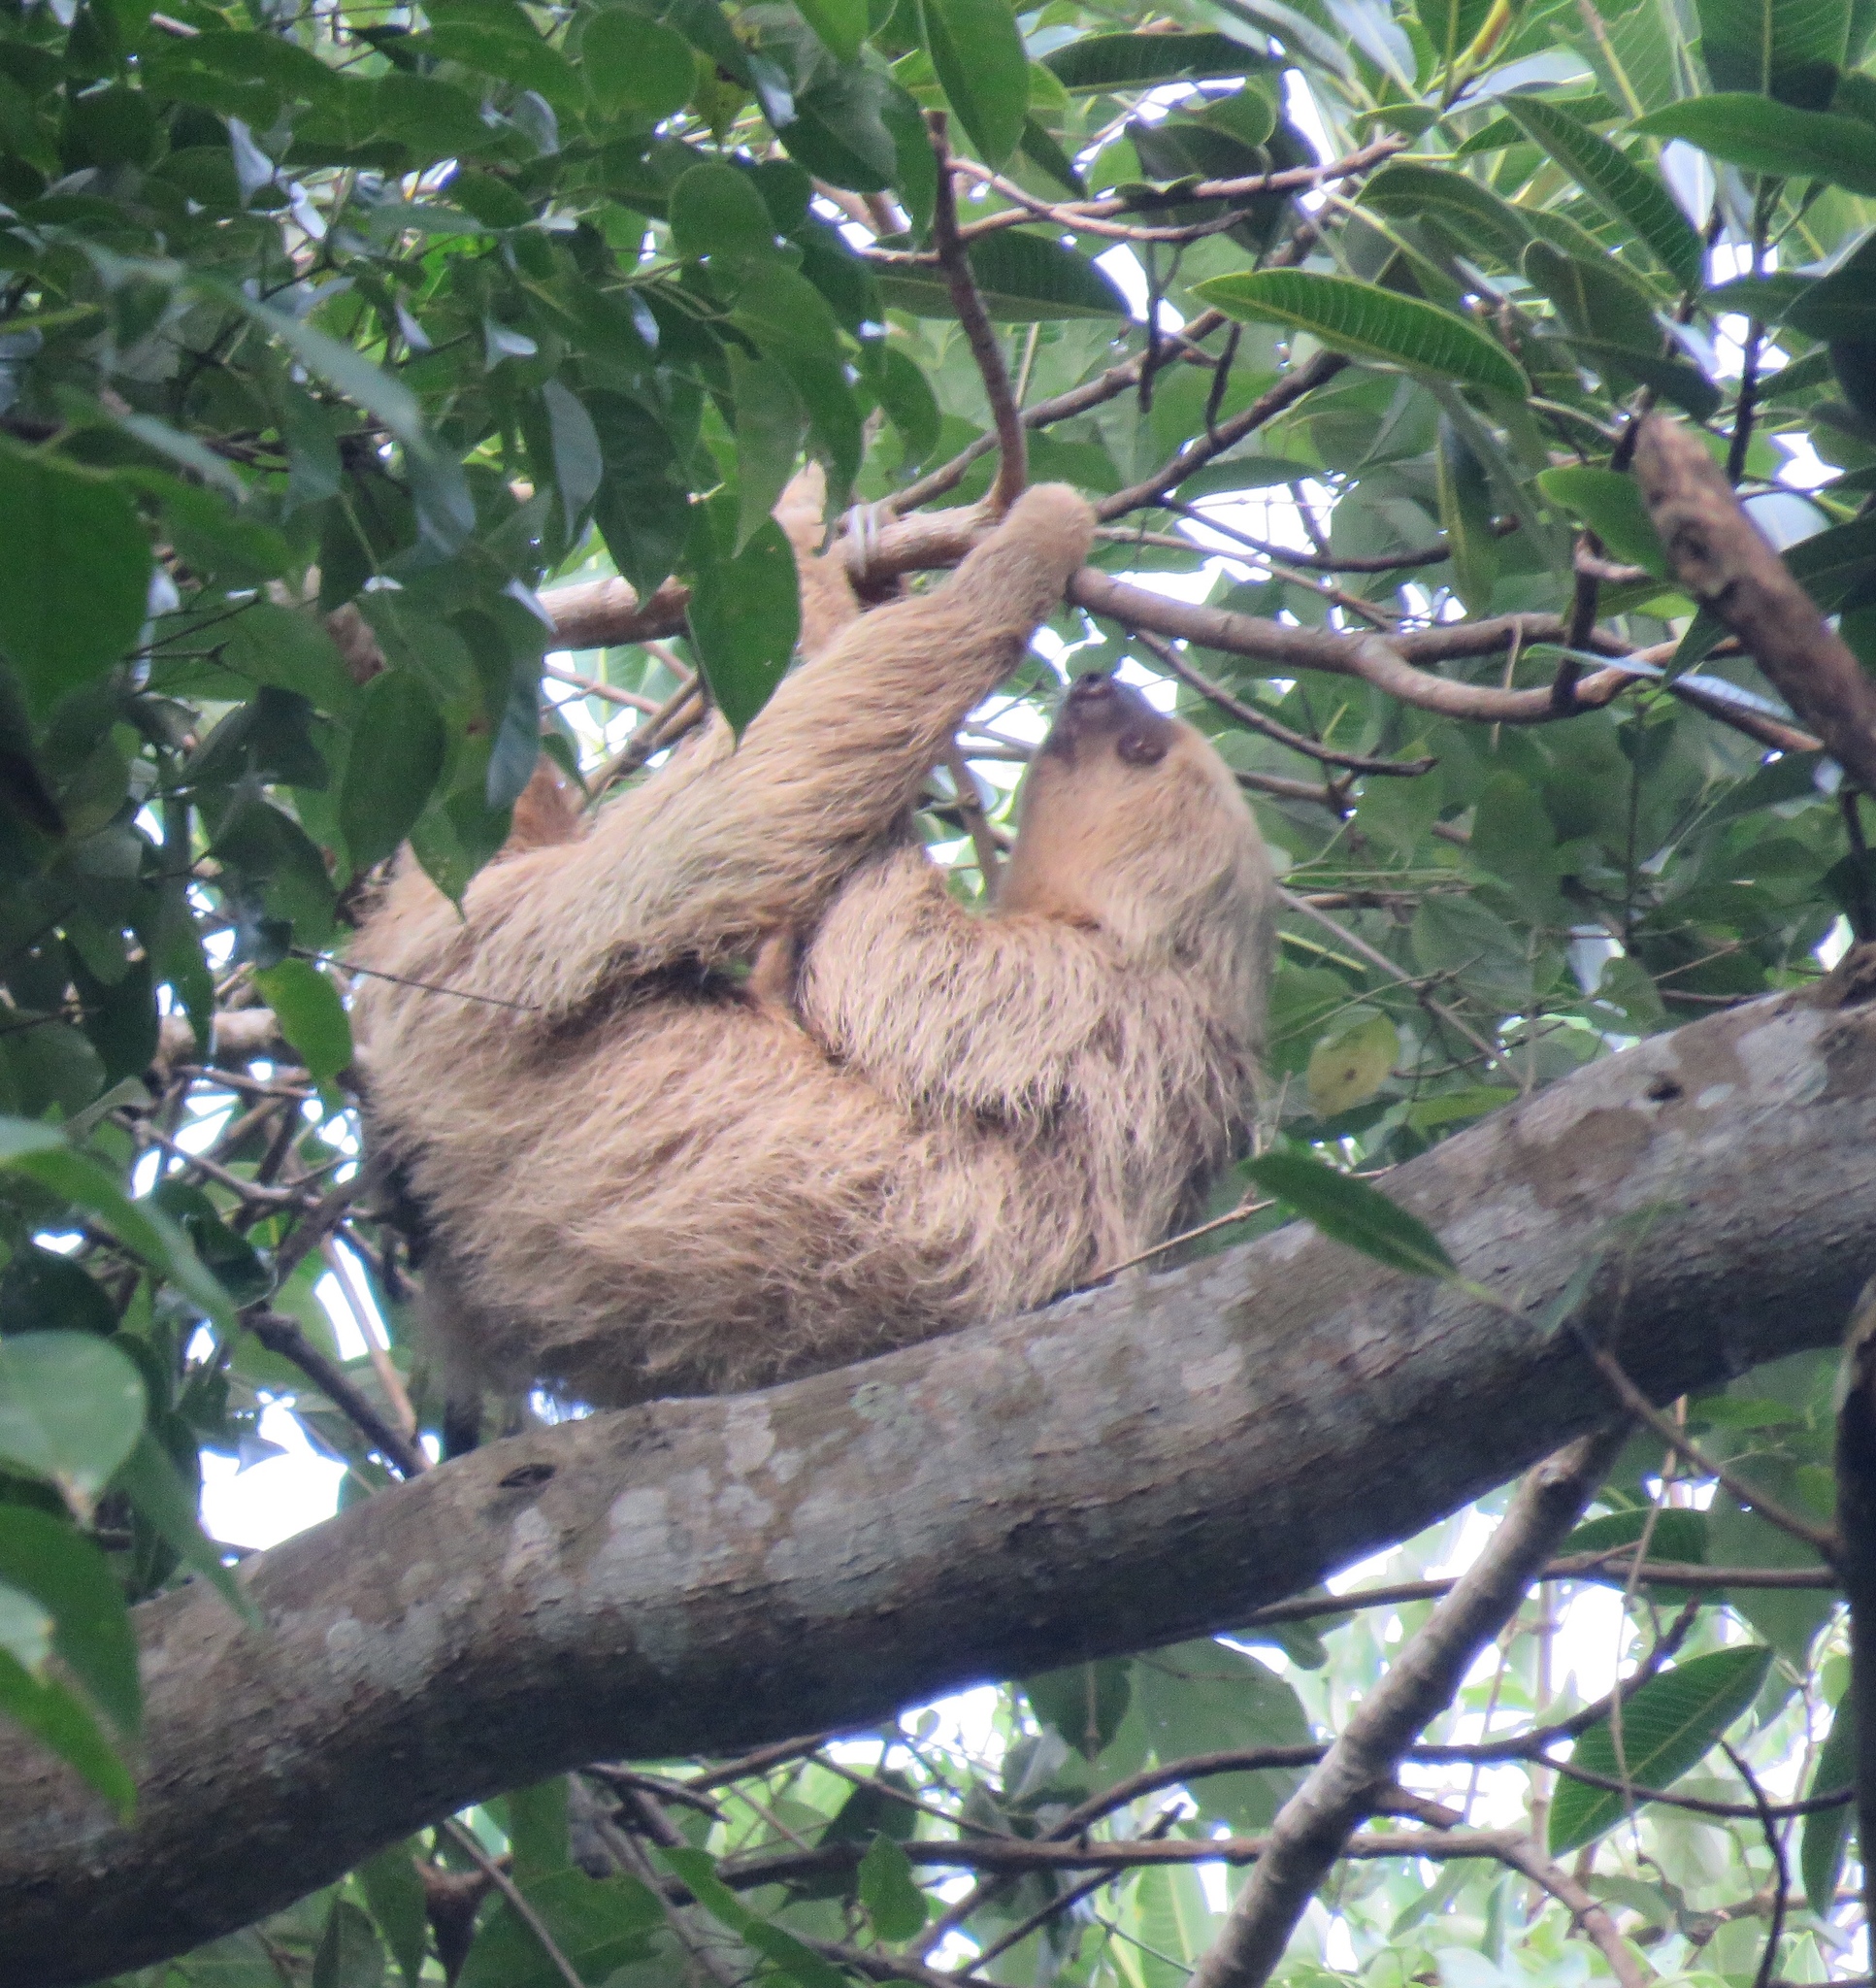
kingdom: Animalia
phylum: Chordata
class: Mammalia
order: Pilosa
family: Megalonychidae
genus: Choloepus
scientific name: Choloepus hoffmanni
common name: Hoffmann's two-toed sloth
